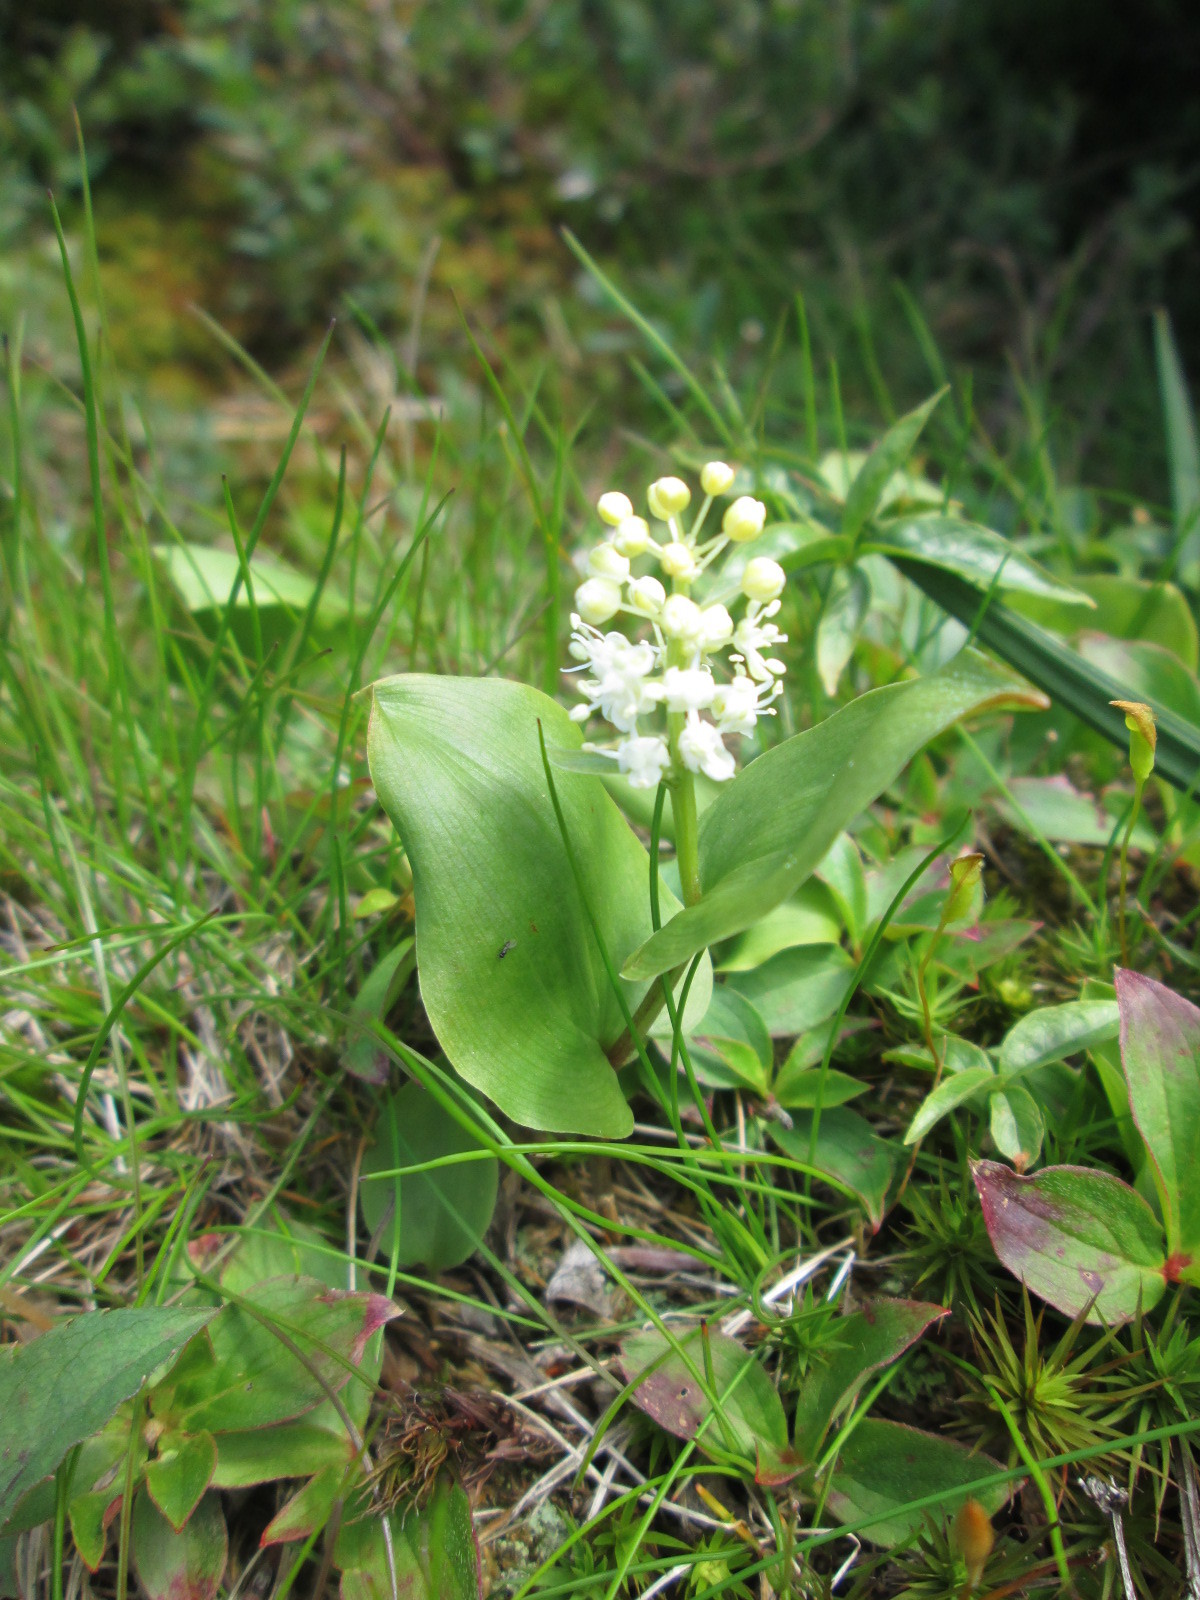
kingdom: Plantae
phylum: Tracheophyta
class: Liliopsida
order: Asparagales
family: Asparagaceae
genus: Maianthemum
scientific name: Maianthemum canadense
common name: False lily-of-the-valley
